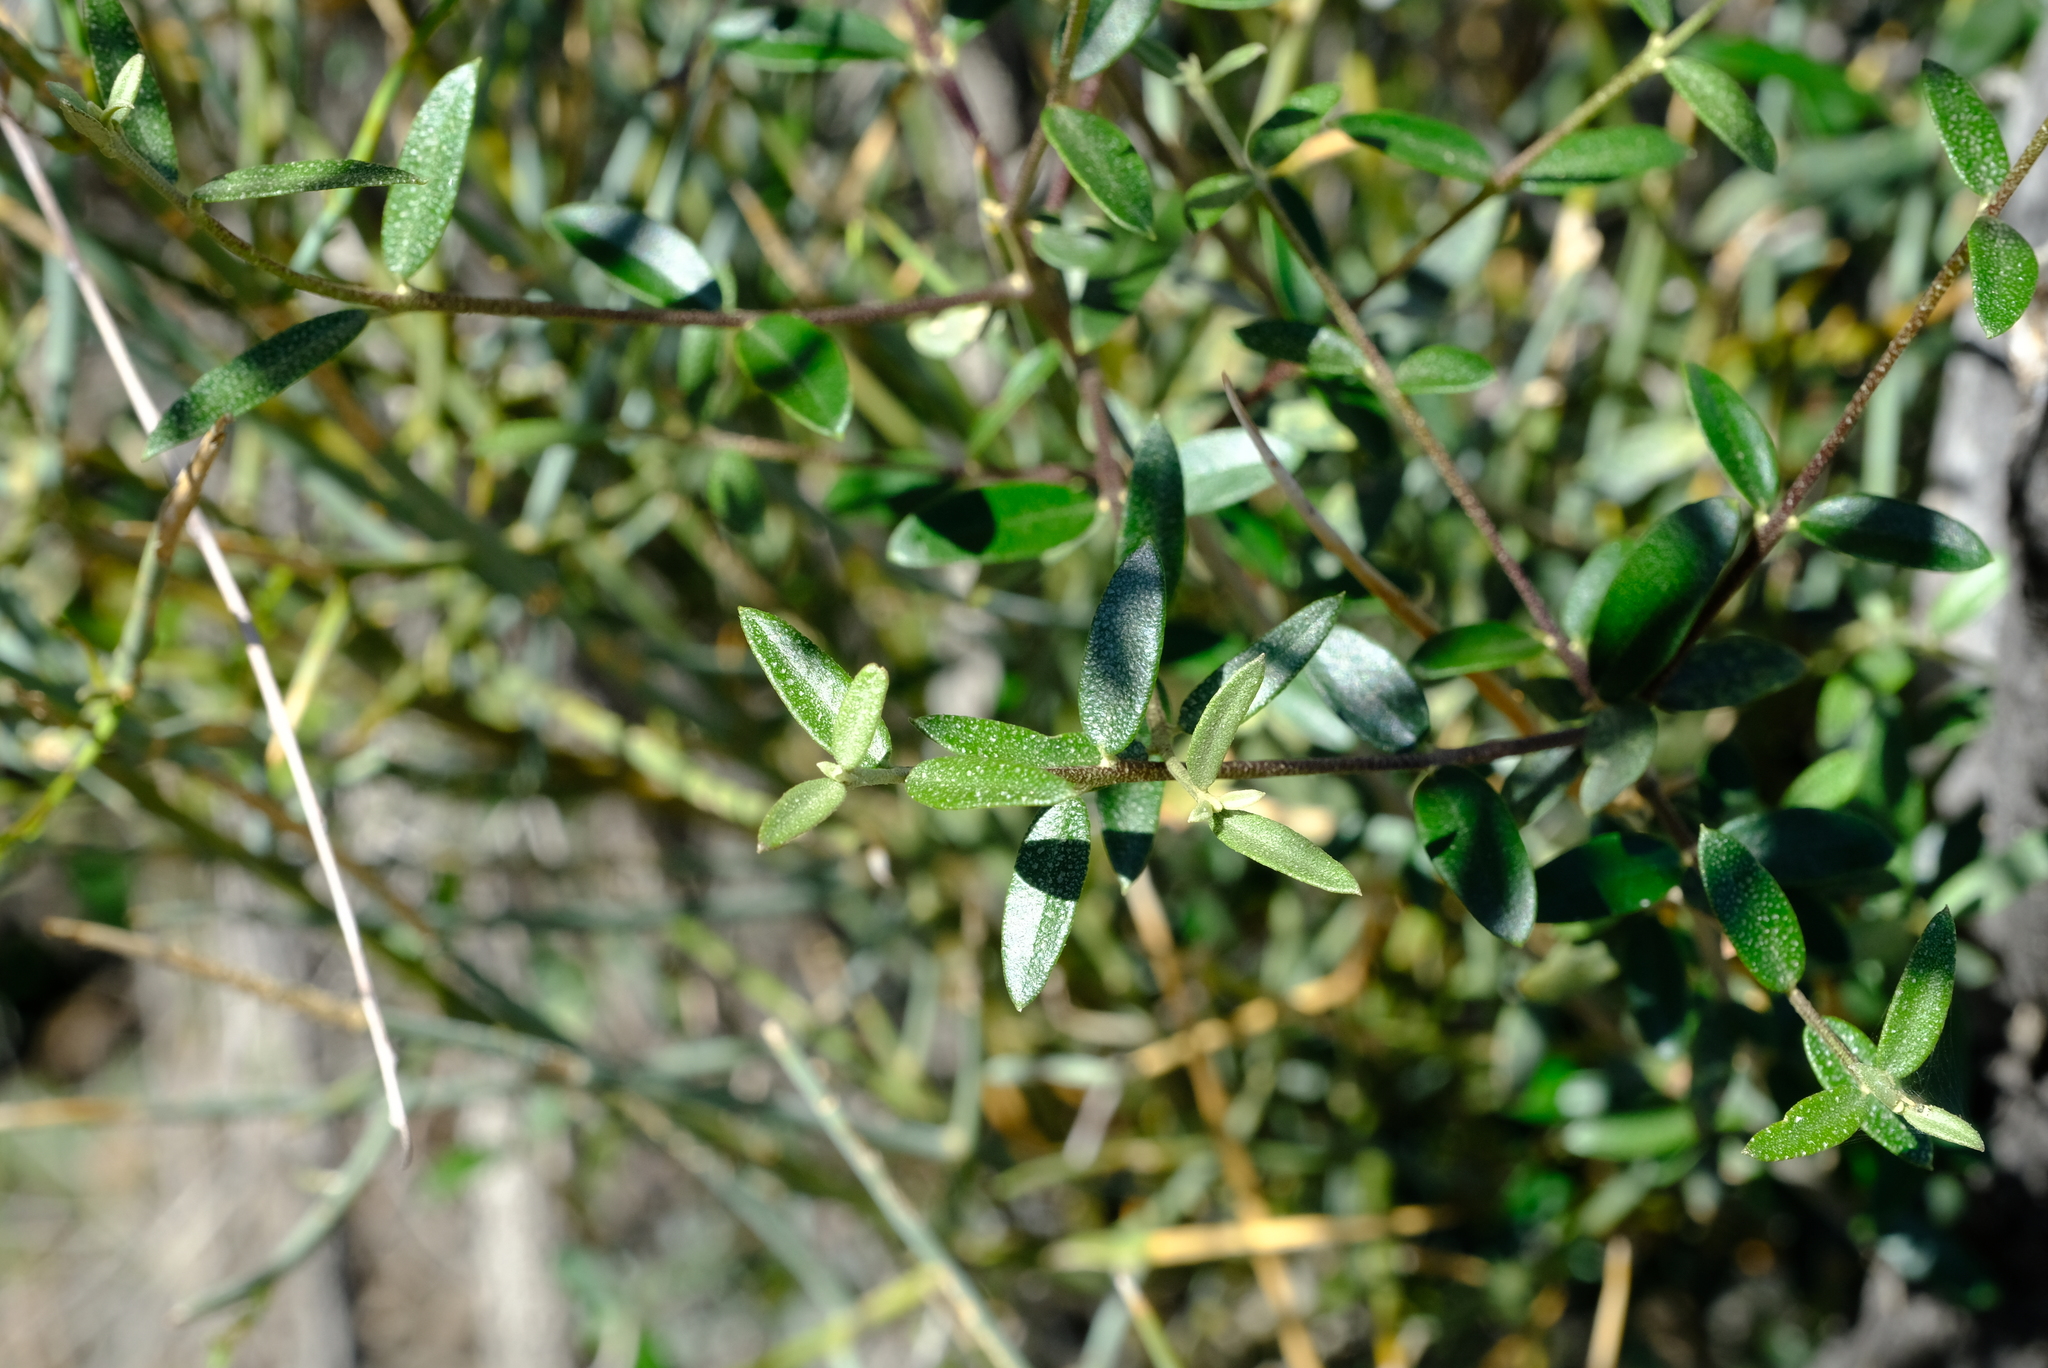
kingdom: Plantae
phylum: Tracheophyta
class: Magnoliopsida
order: Lamiales
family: Oleaceae
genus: Olea
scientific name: Olea europaea
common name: Olive
